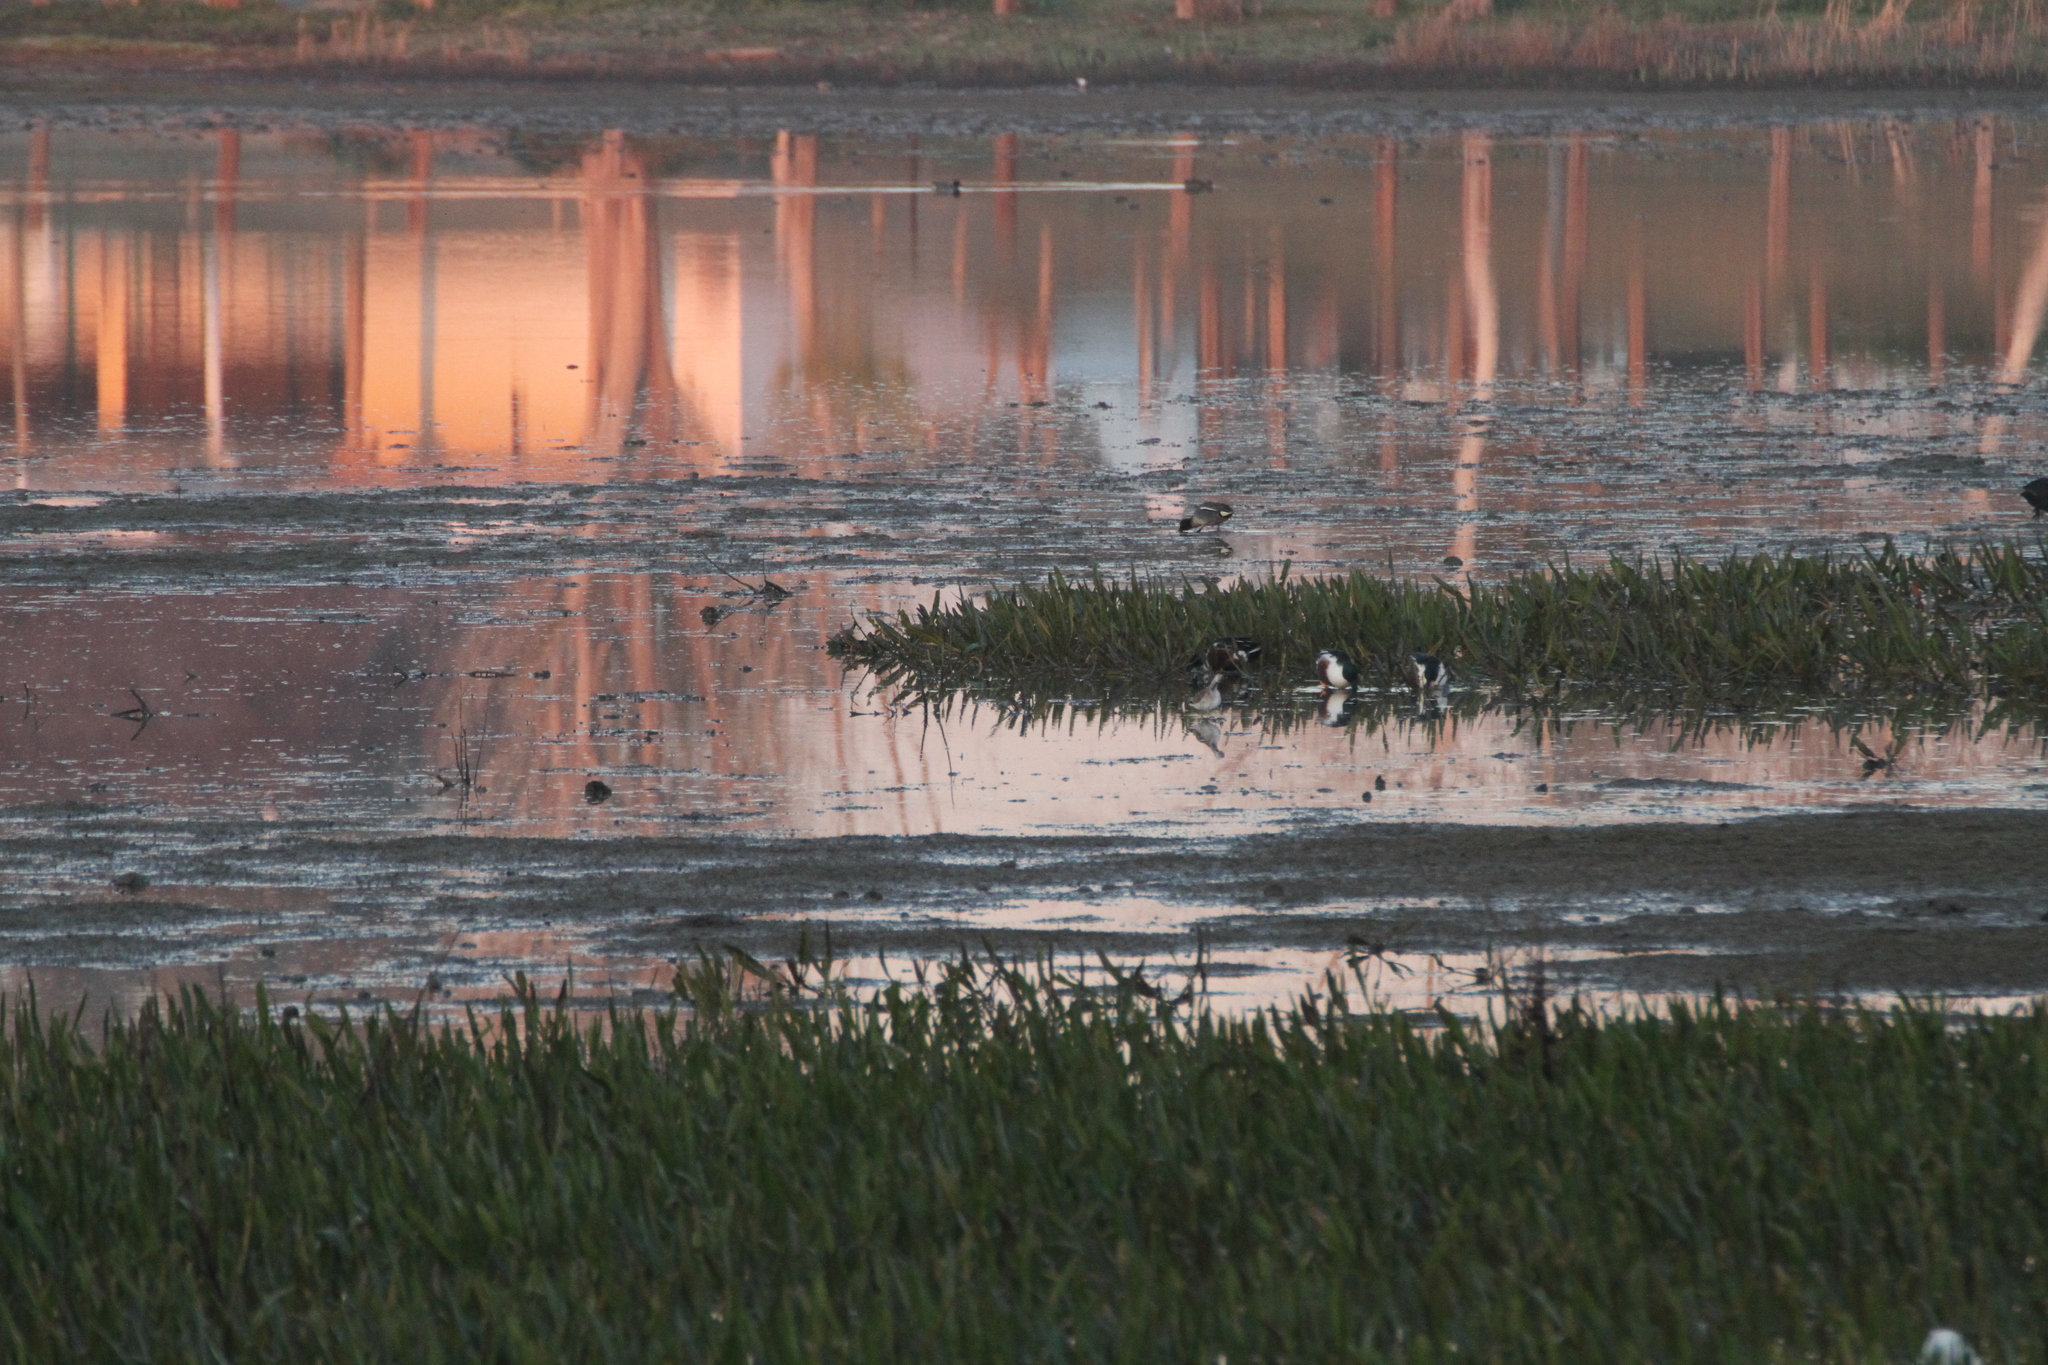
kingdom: Animalia
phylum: Chordata
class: Aves
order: Anseriformes
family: Anatidae
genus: Spatula
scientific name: Spatula clypeata
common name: Northern shoveler
